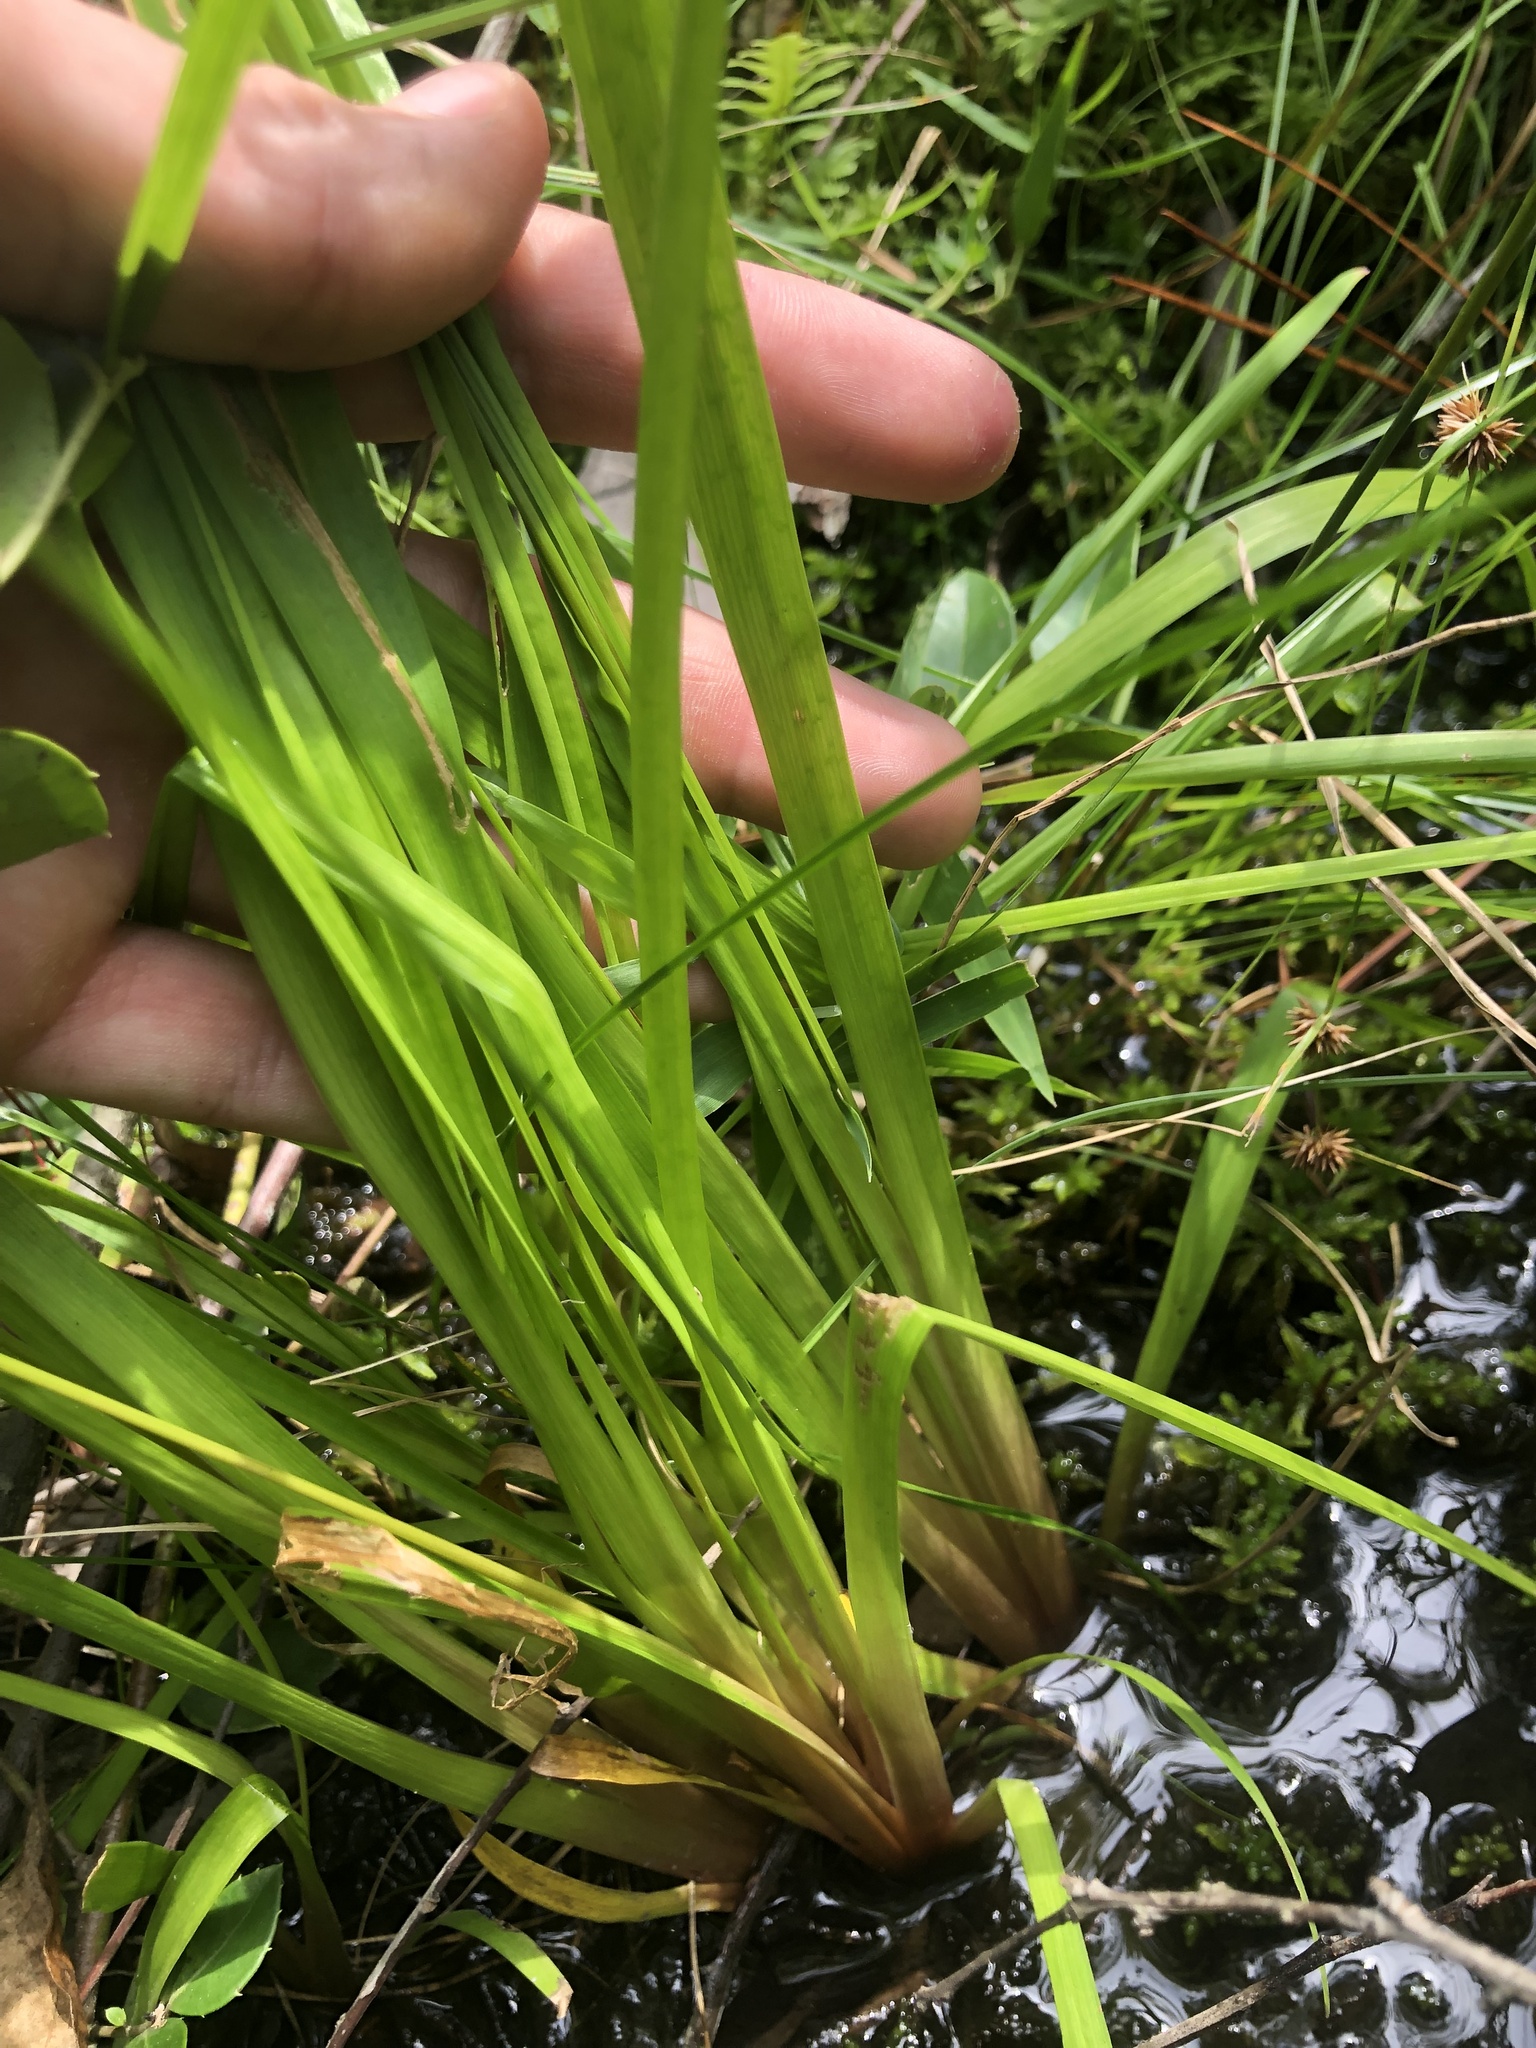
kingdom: Plantae
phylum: Tracheophyta
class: Liliopsida
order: Poales
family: Xyridaceae
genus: Xyris
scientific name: Xyris difformis
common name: Bog yellow-eyed-grass
